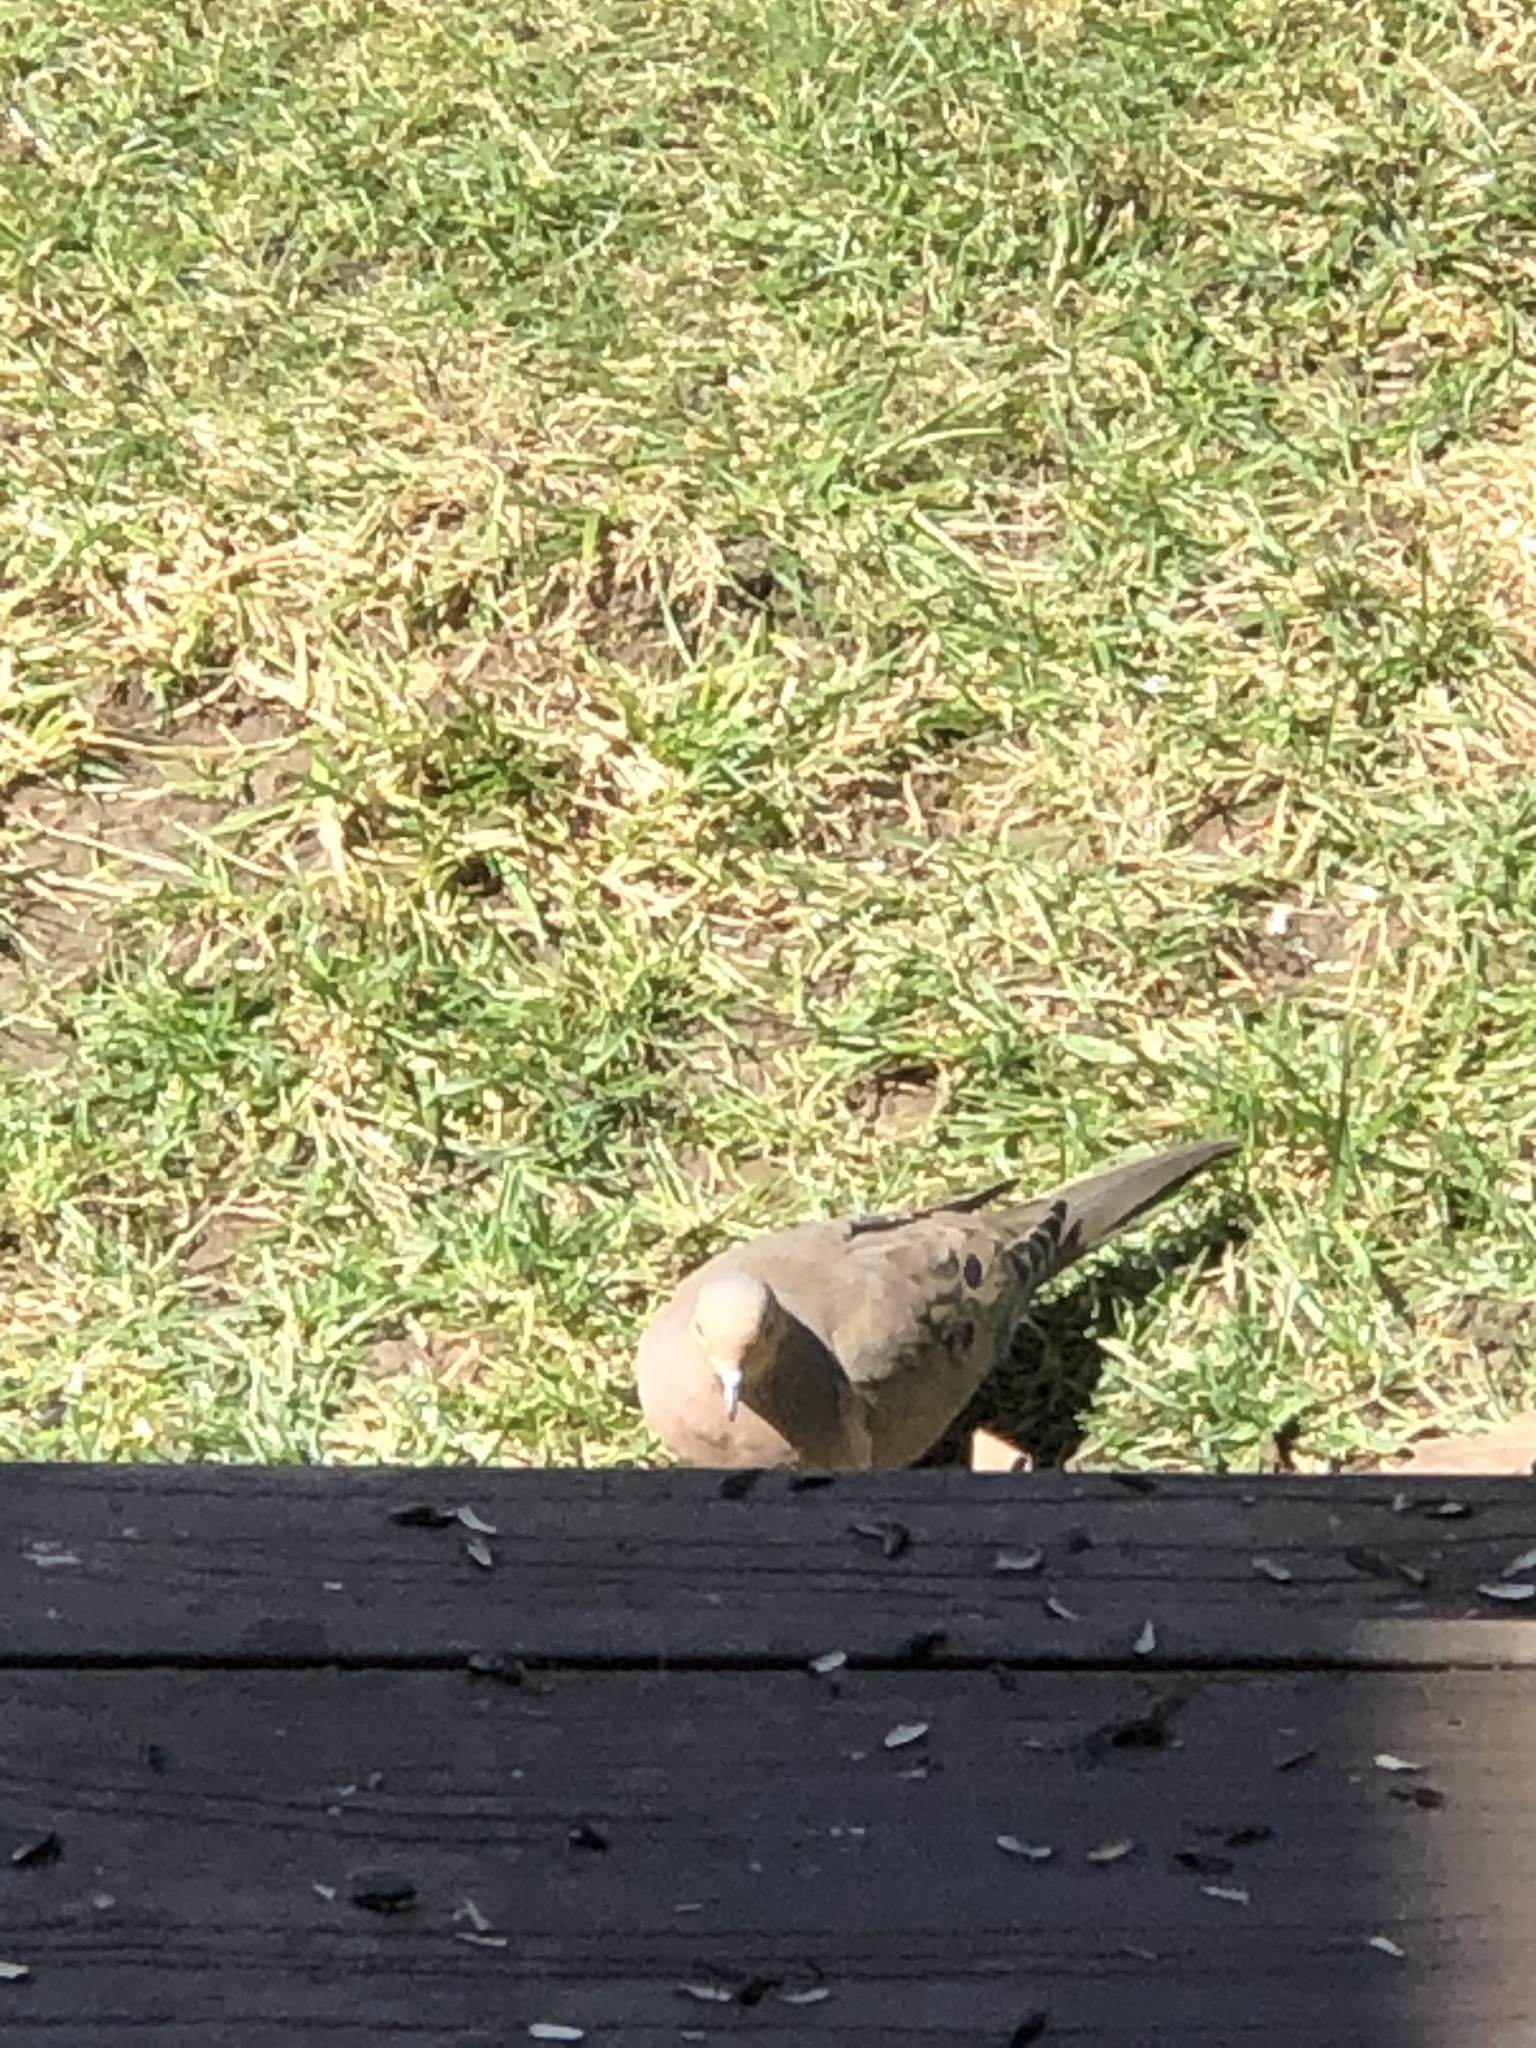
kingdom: Animalia
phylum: Chordata
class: Aves
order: Columbiformes
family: Columbidae
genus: Zenaida
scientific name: Zenaida macroura
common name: Mourning dove
